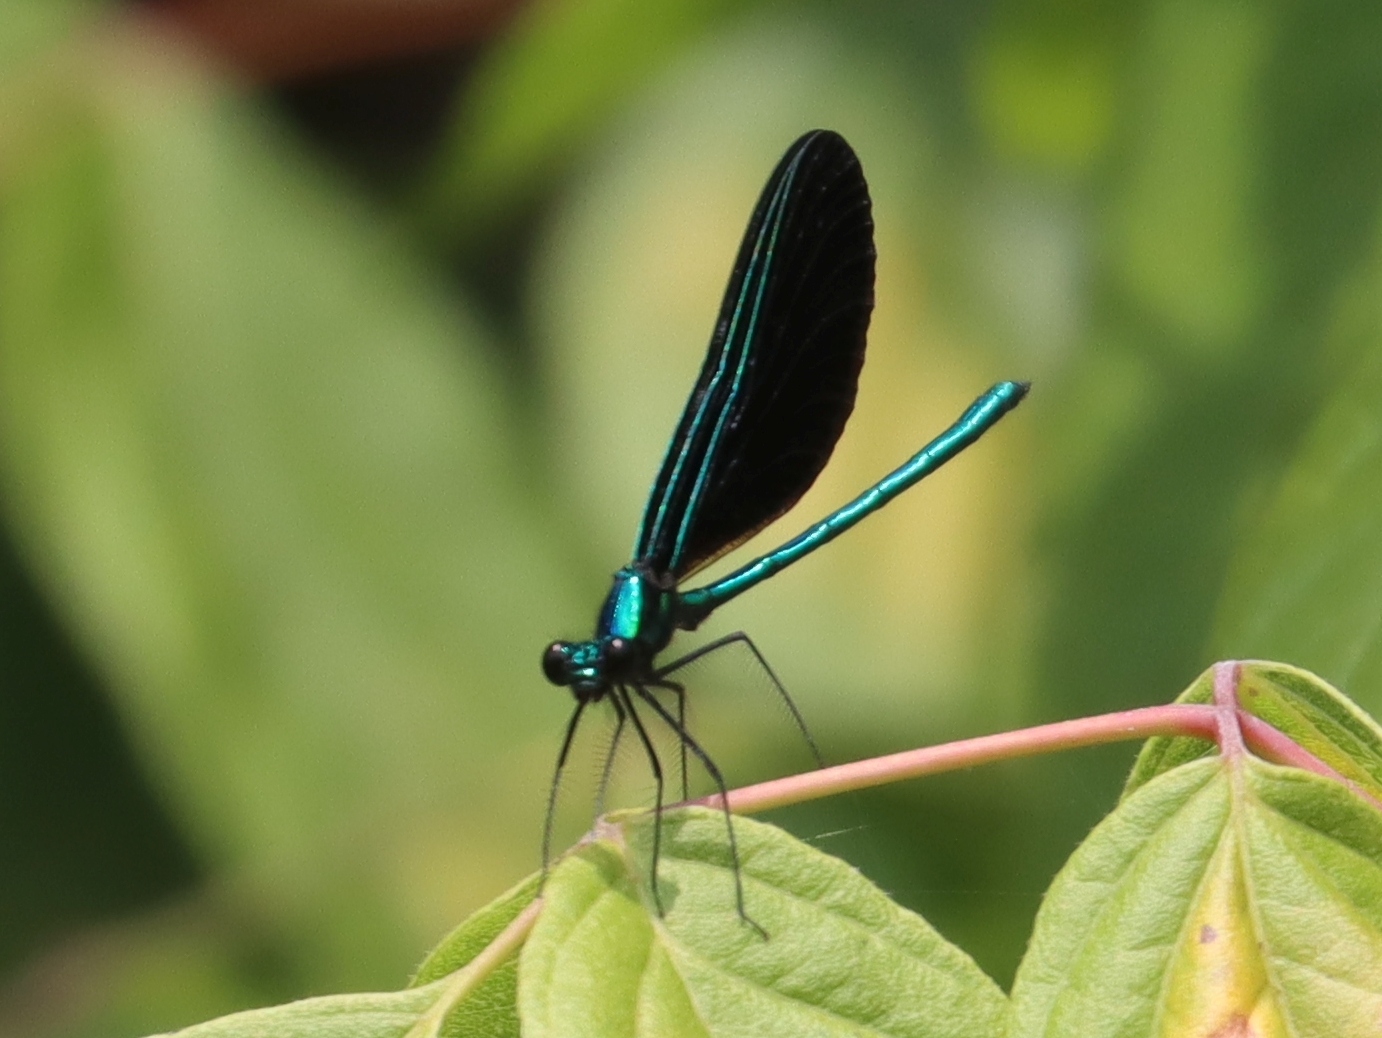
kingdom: Animalia
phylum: Arthropoda
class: Insecta
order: Odonata
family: Calopterygidae
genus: Calopteryx
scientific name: Calopteryx maculata
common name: Ebony jewelwing
